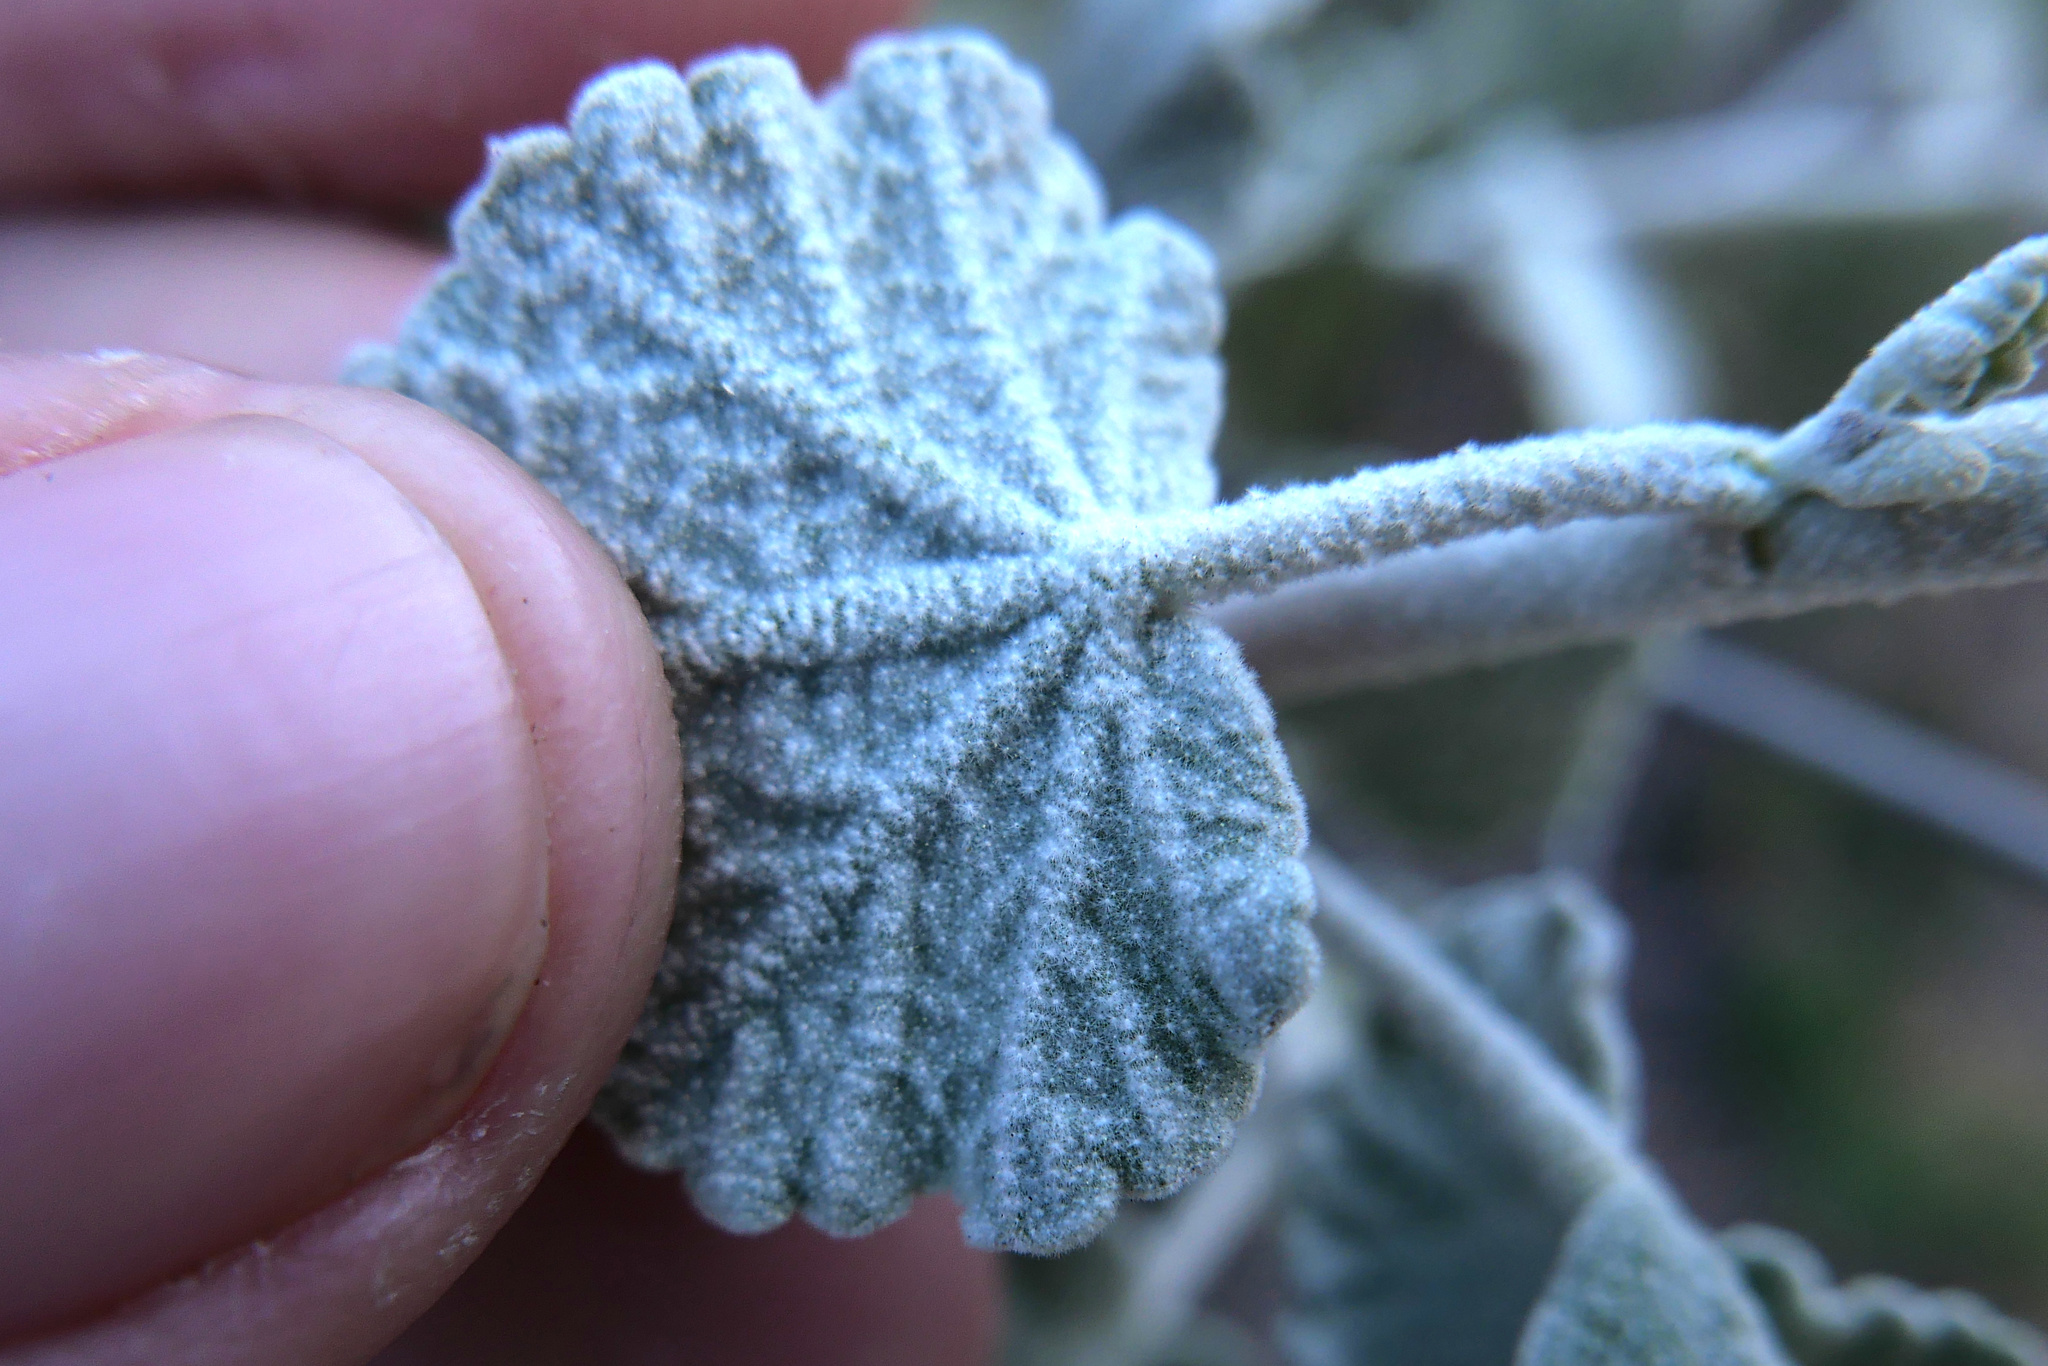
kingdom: Plantae
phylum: Tracheophyta
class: Magnoliopsida
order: Malvales
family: Malvaceae
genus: Malacothamnus
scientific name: Malacothamnus jonesii
